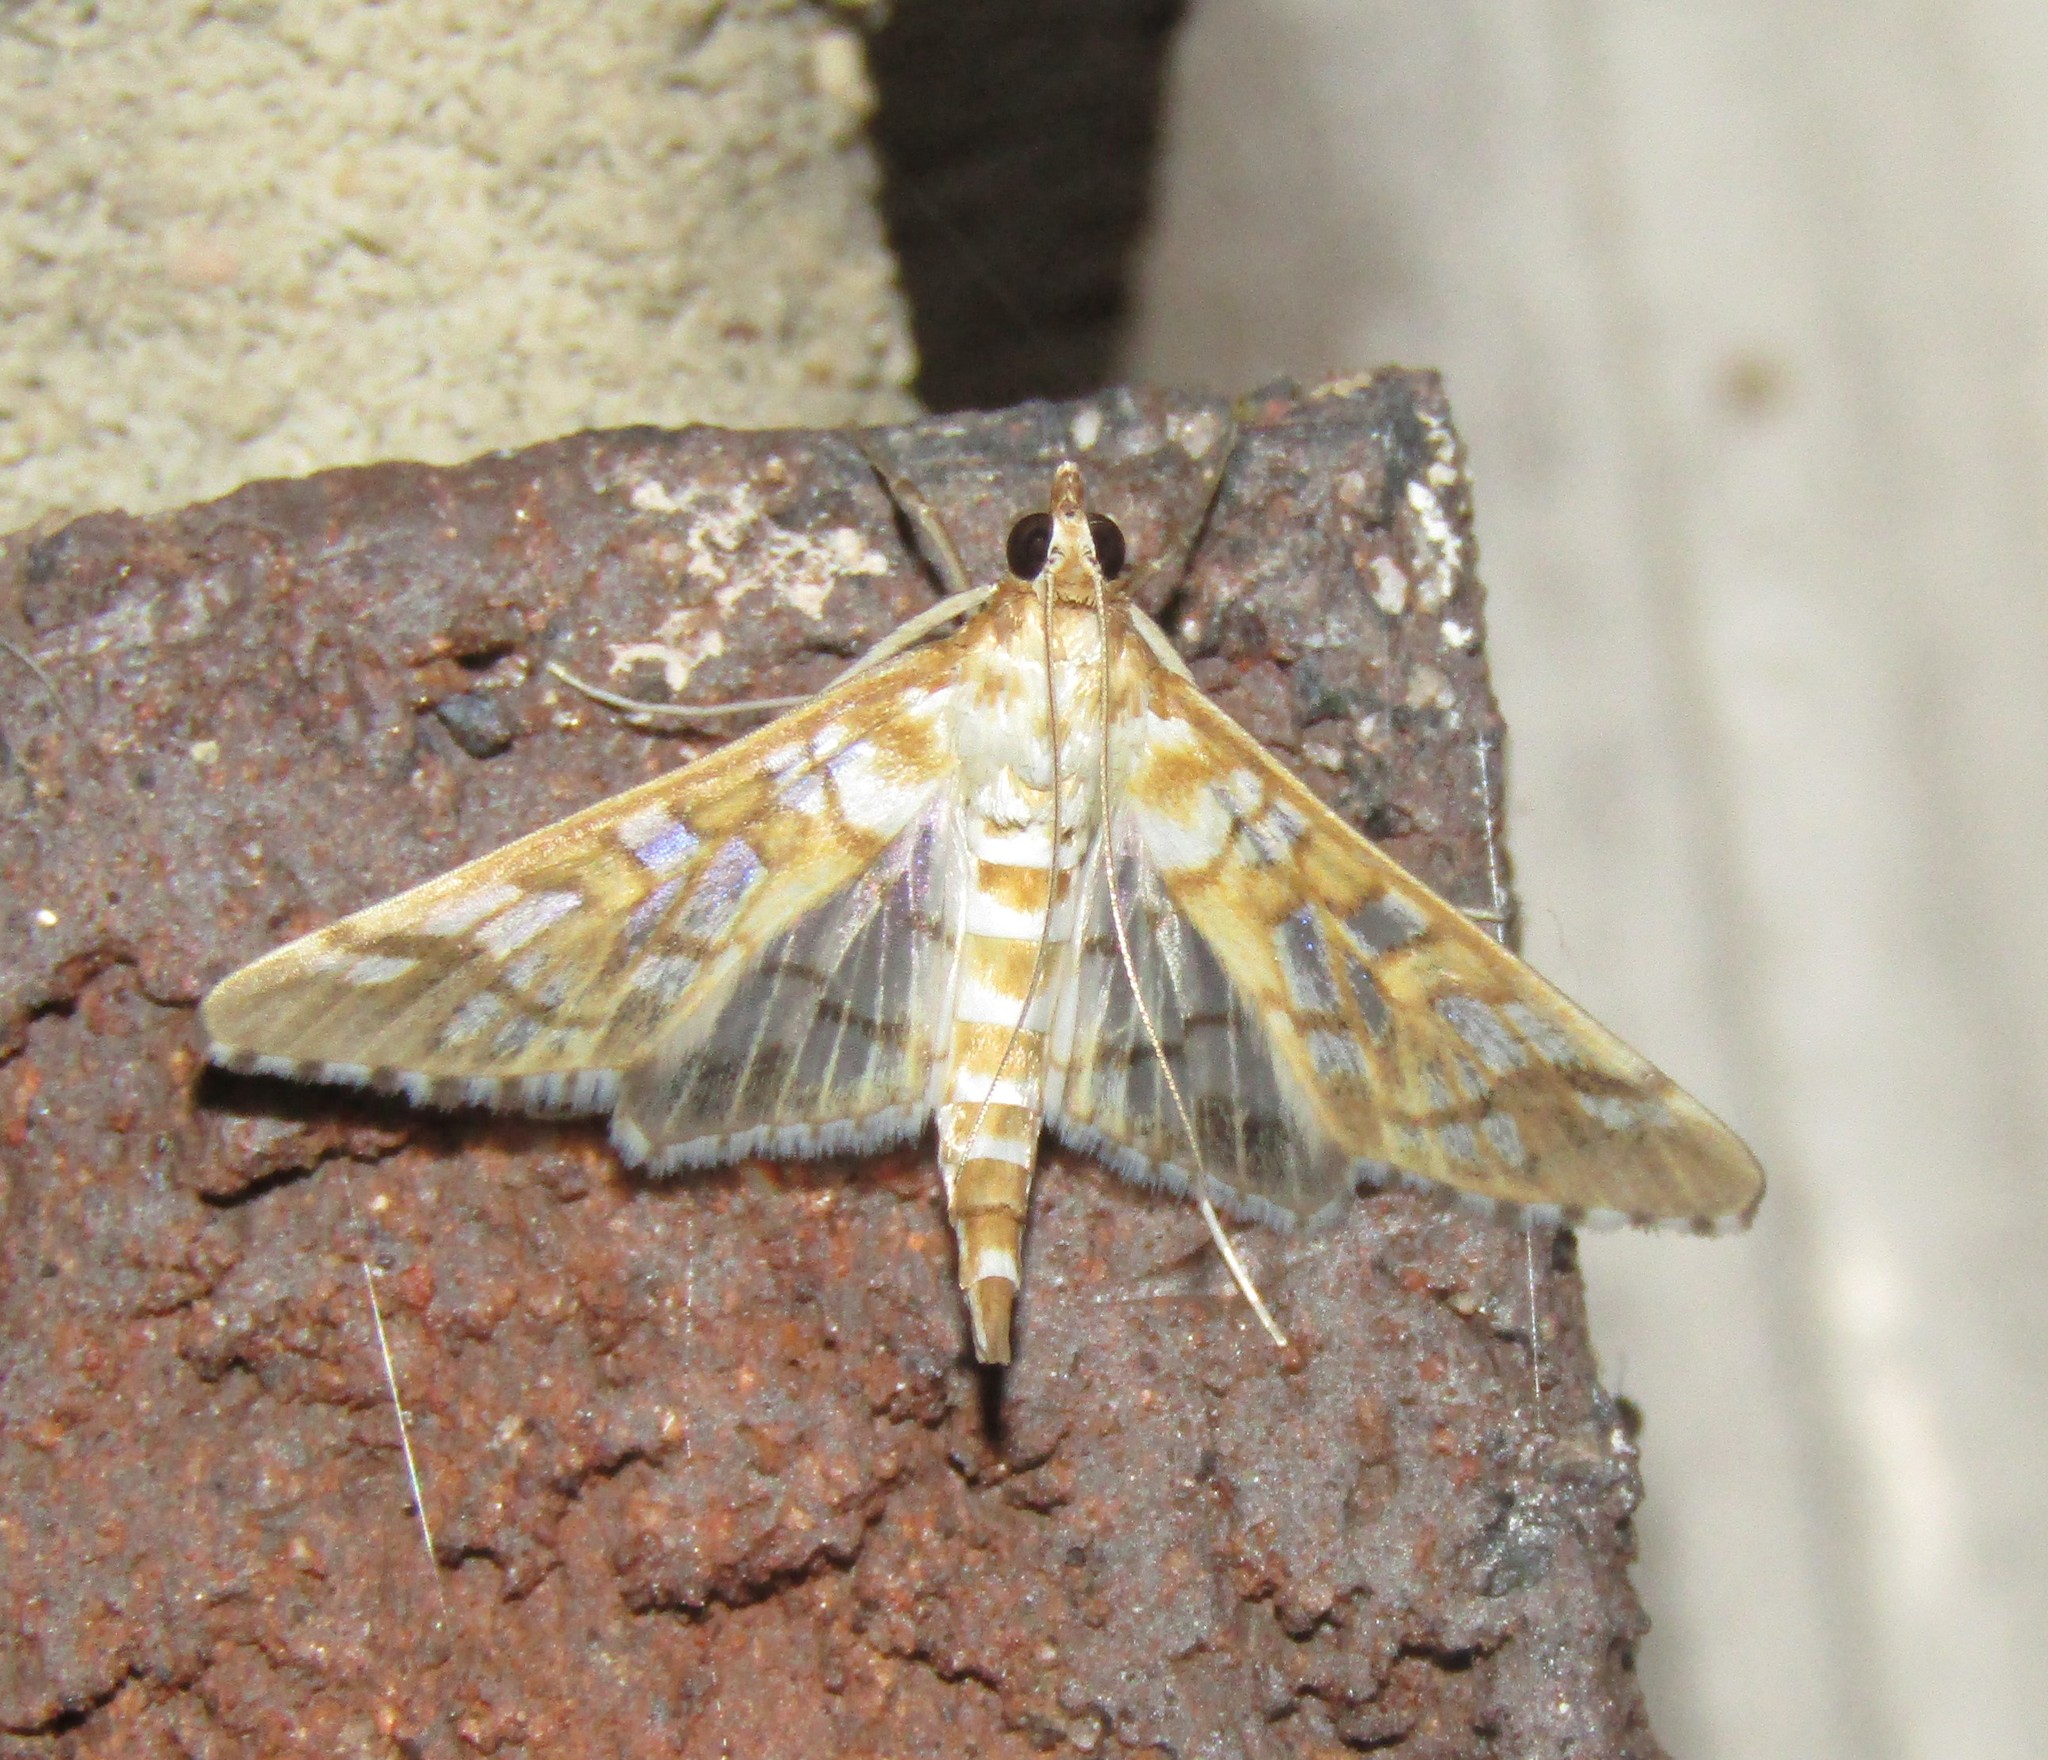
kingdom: Animalia
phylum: Arthropoda
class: Insecta
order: Lepidoptera
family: Crambidae
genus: Epipagis
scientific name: Epipagis fenestralis
